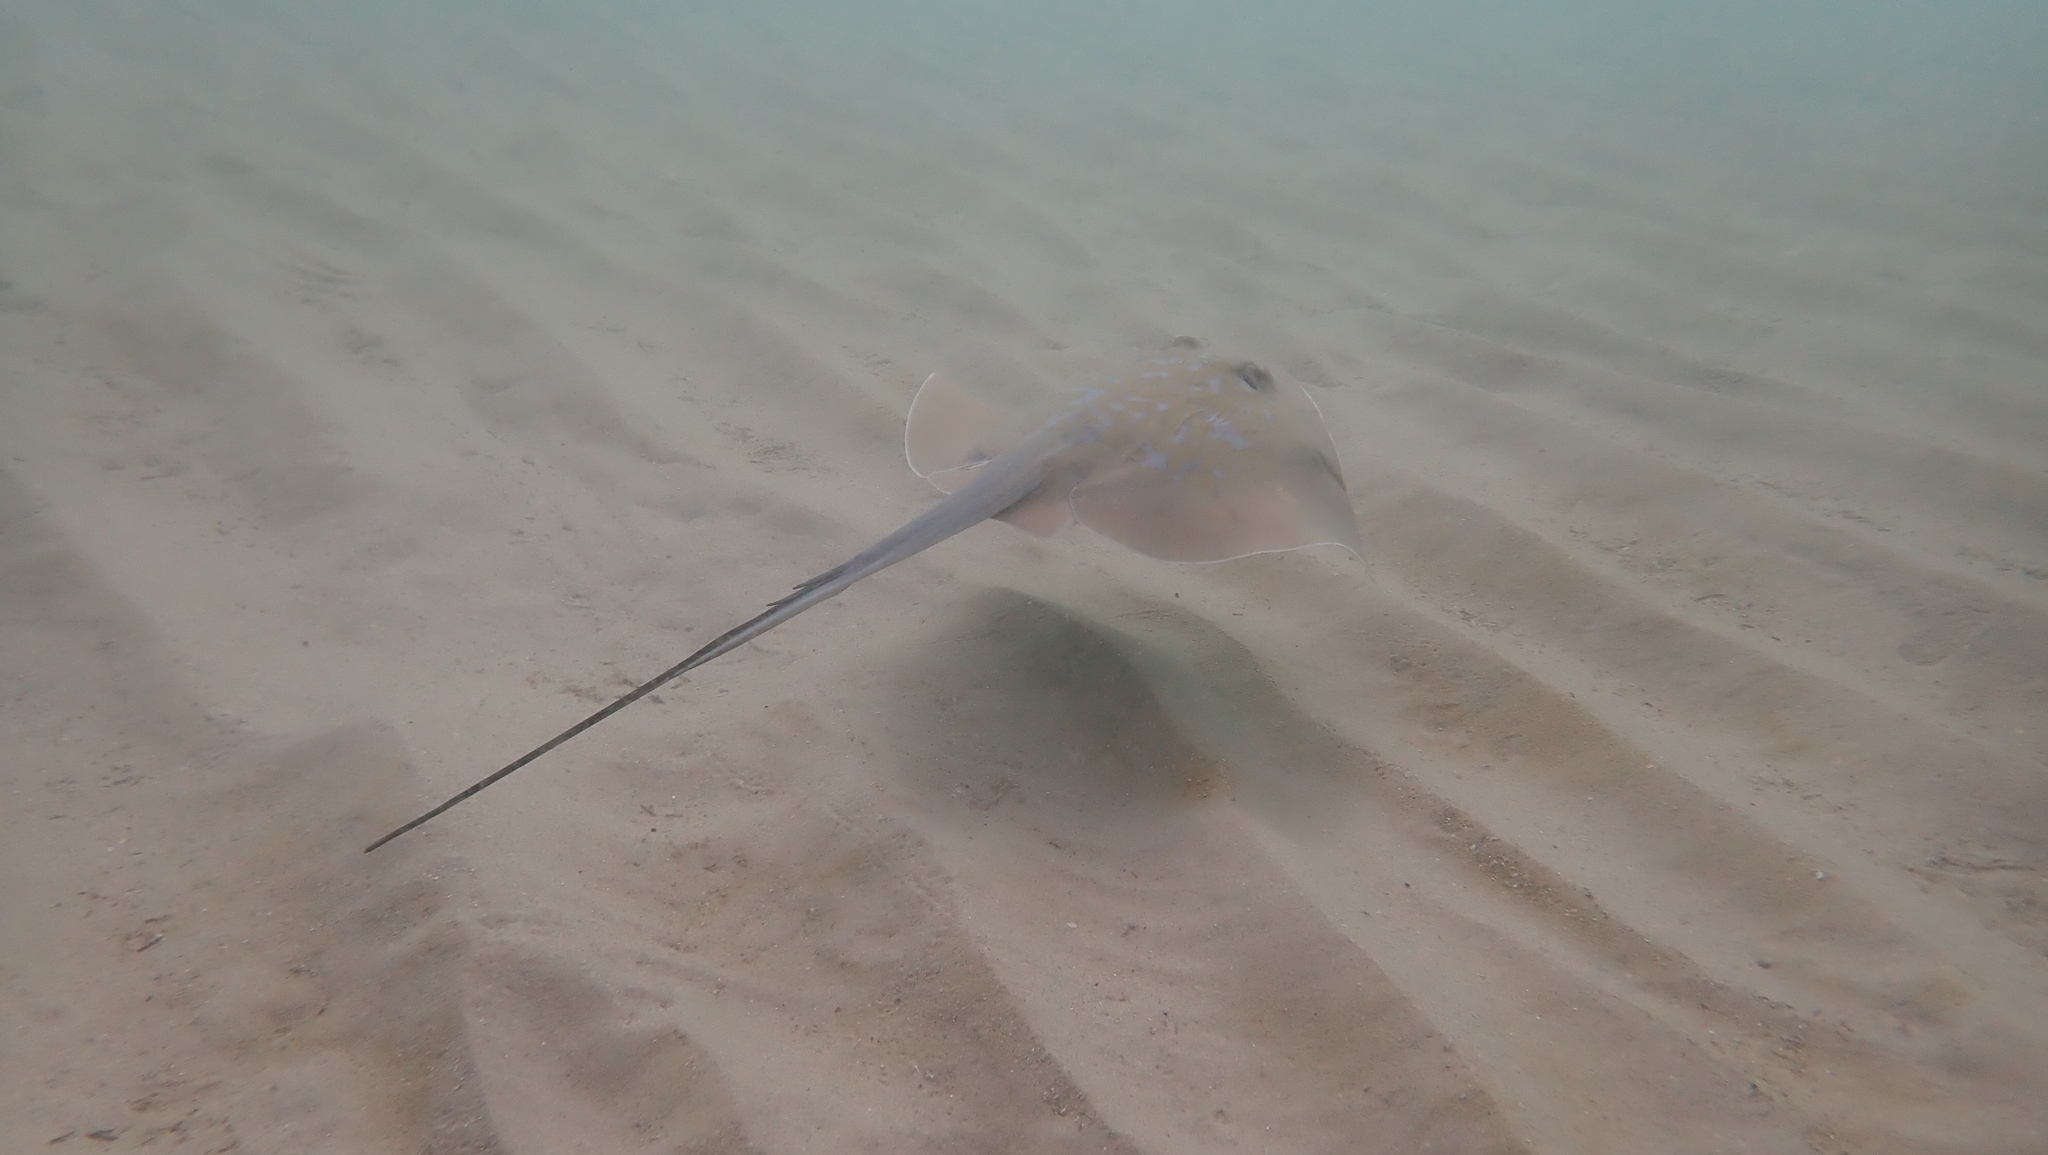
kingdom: Animalia
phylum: Chordata
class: Elasmobranchii
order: Myliobatiformes
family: Dasyatidae
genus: Dasyatis
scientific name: Dasyatis marmorata
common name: Marbled stingray
